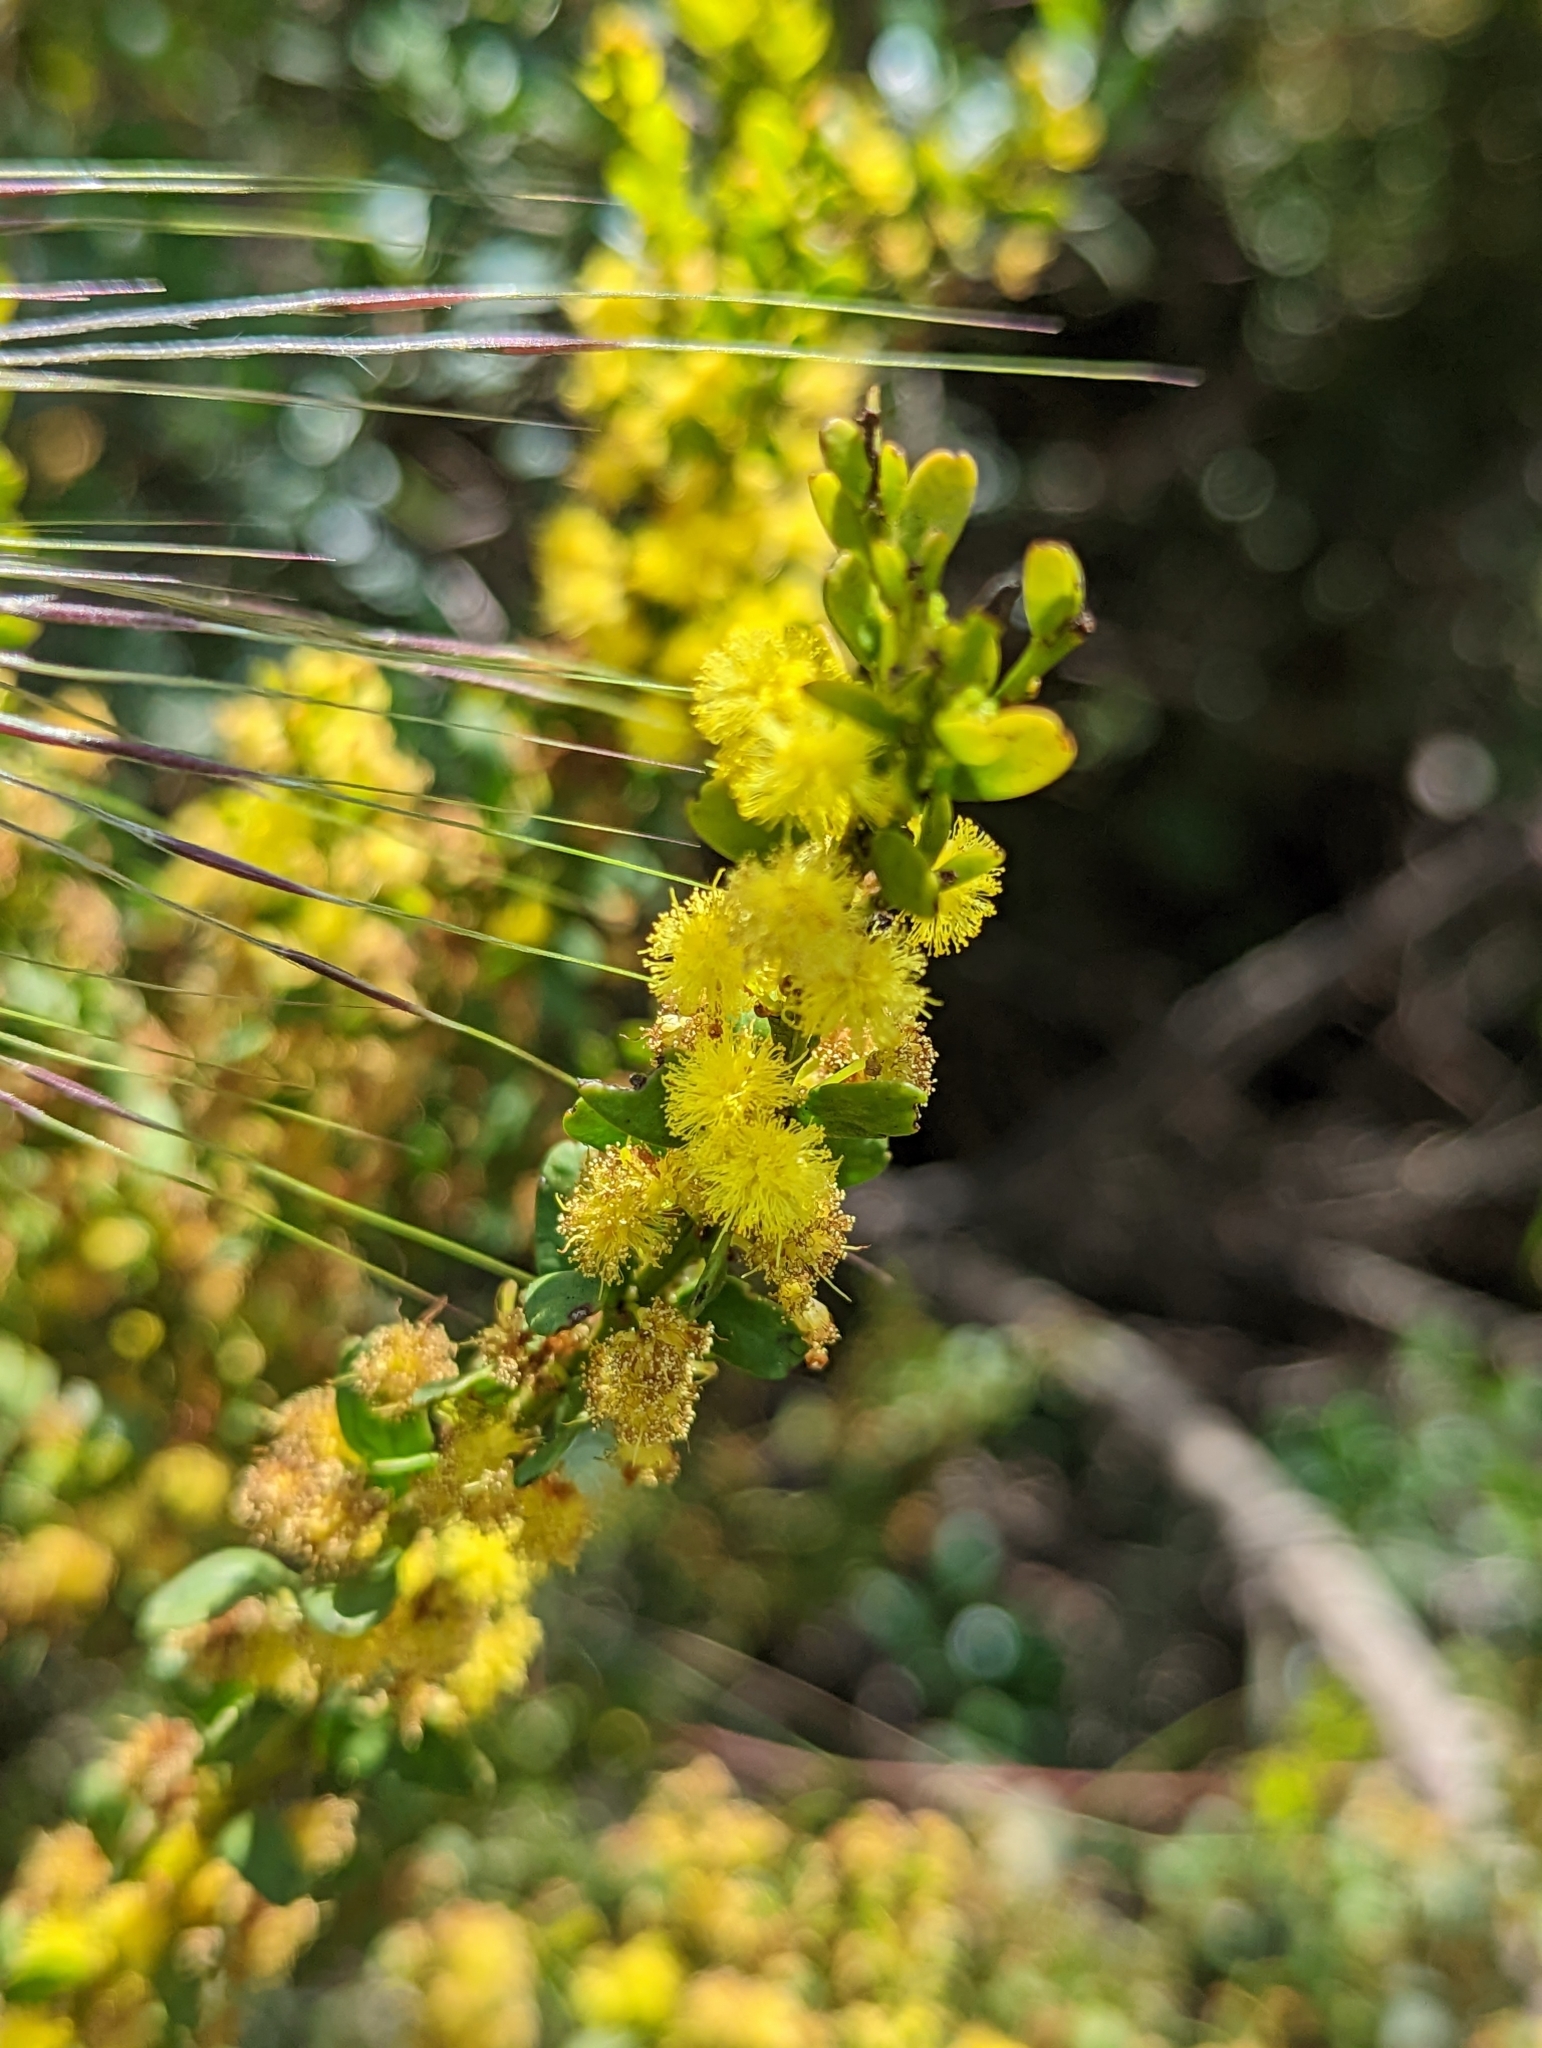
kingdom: Plantae
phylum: Tracheophyta
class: Magnoliopsida
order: Fabales
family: Fabaceae
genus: Acacia
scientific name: Acacia acinacea
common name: Gold-dust acacia
